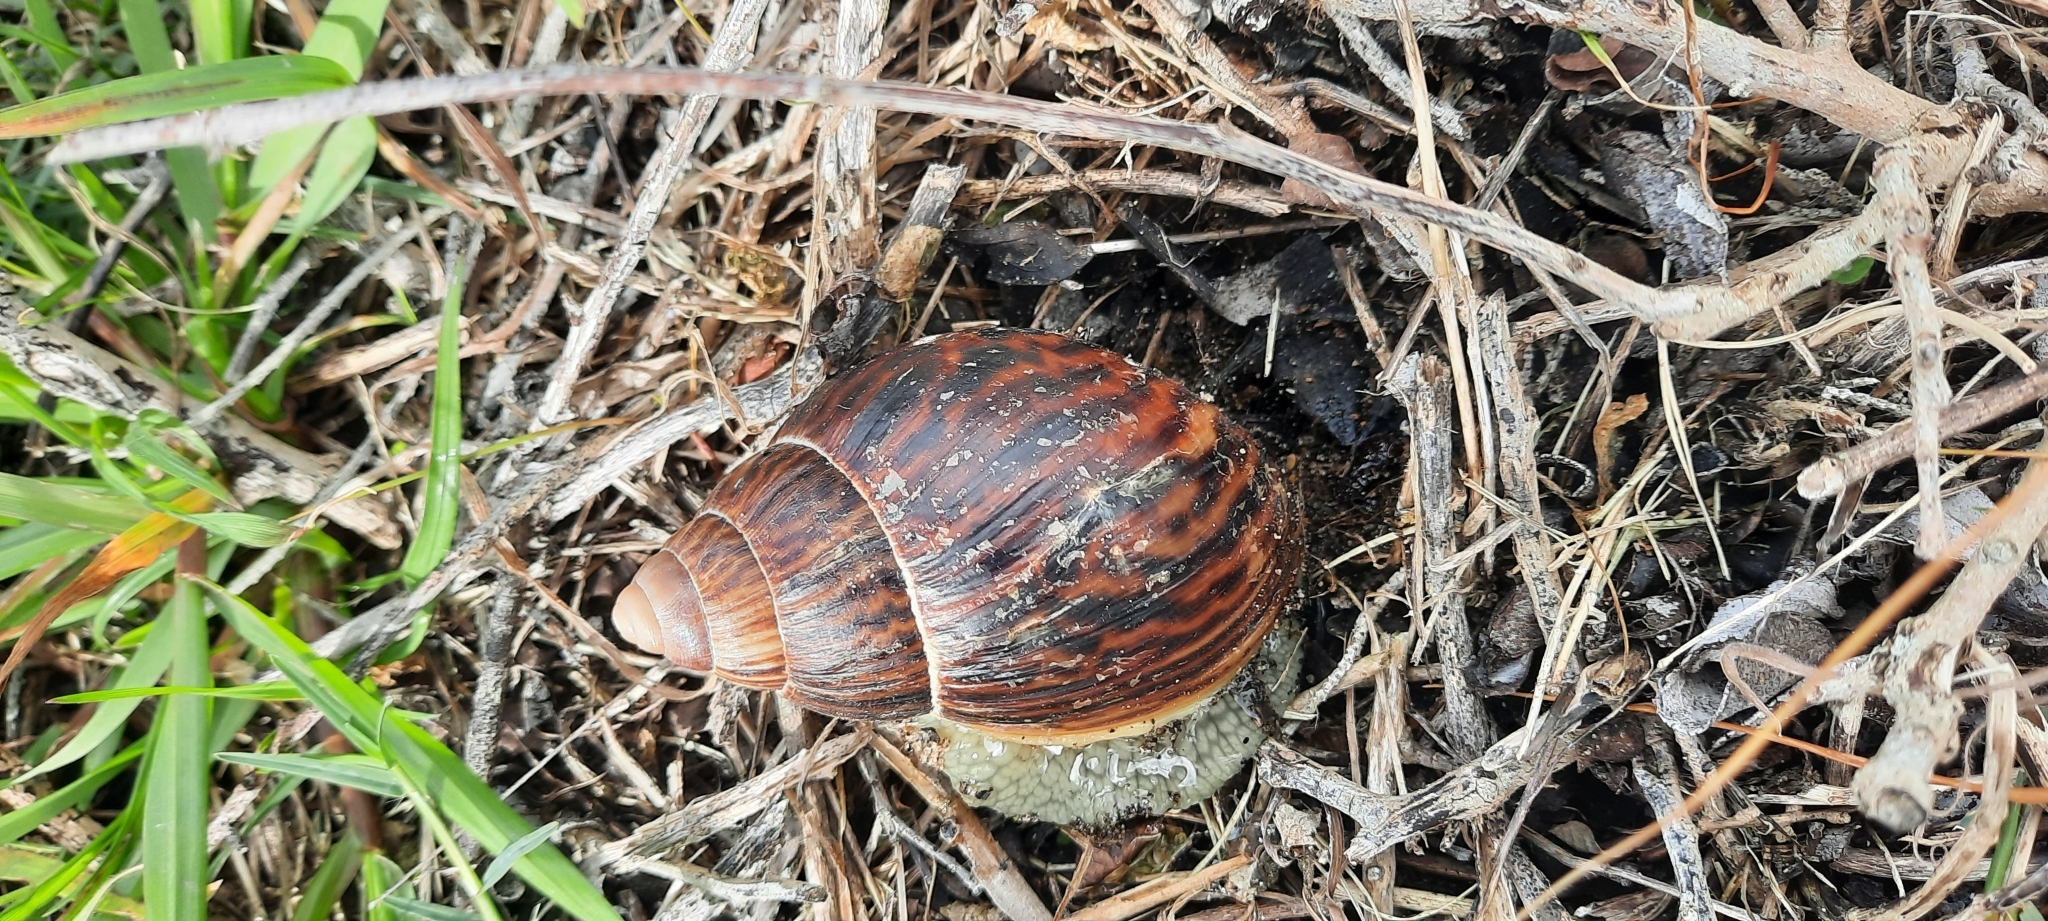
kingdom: Animalia
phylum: Mollusca
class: Gastropoda
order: Stylommatophora
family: Achatinidae
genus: Cochlitoma
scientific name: Cochlitoma zebra
